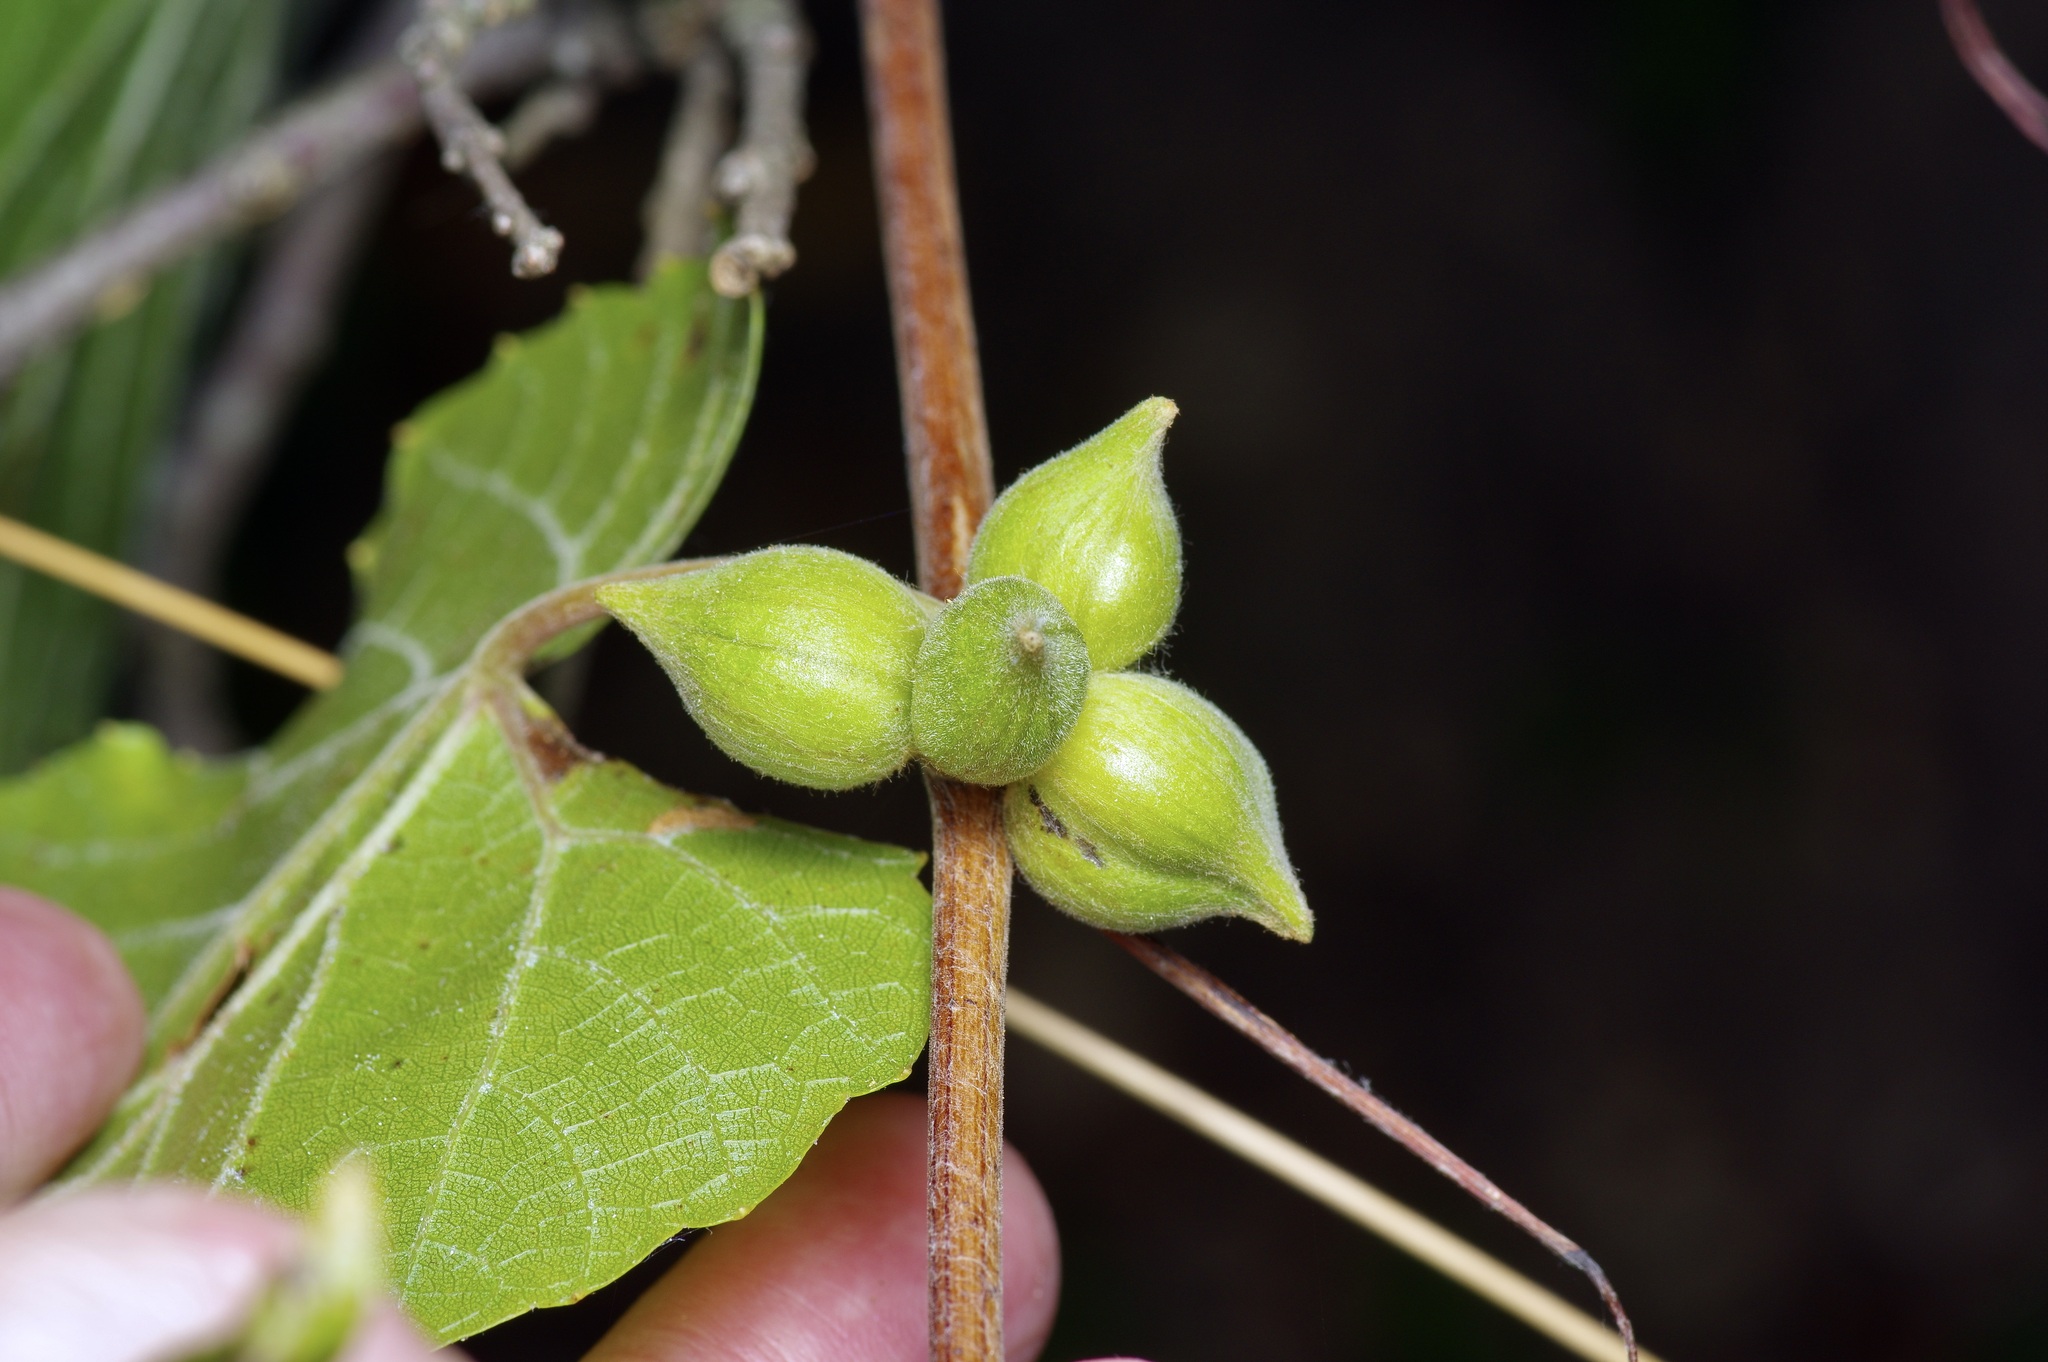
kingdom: Animalia
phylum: Arthropoda
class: Insecta
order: Diptera
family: Cecidomyiidae
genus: Ampelomyia
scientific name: Ampelomyia vitiscoryloides
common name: Grape filbert gall
